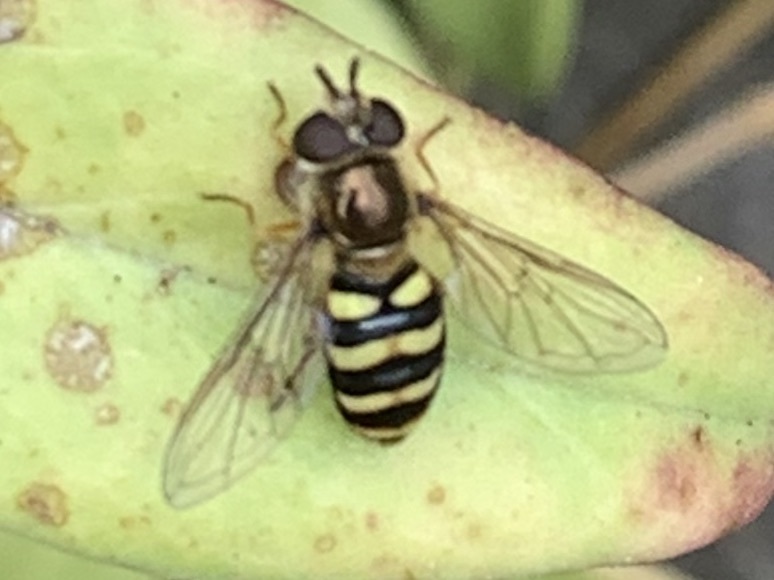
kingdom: Animalia
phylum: Arthropoda
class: Insecta
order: Diptera
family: Syrphidae
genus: Eupeodes
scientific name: Eupeodes fumipennis
